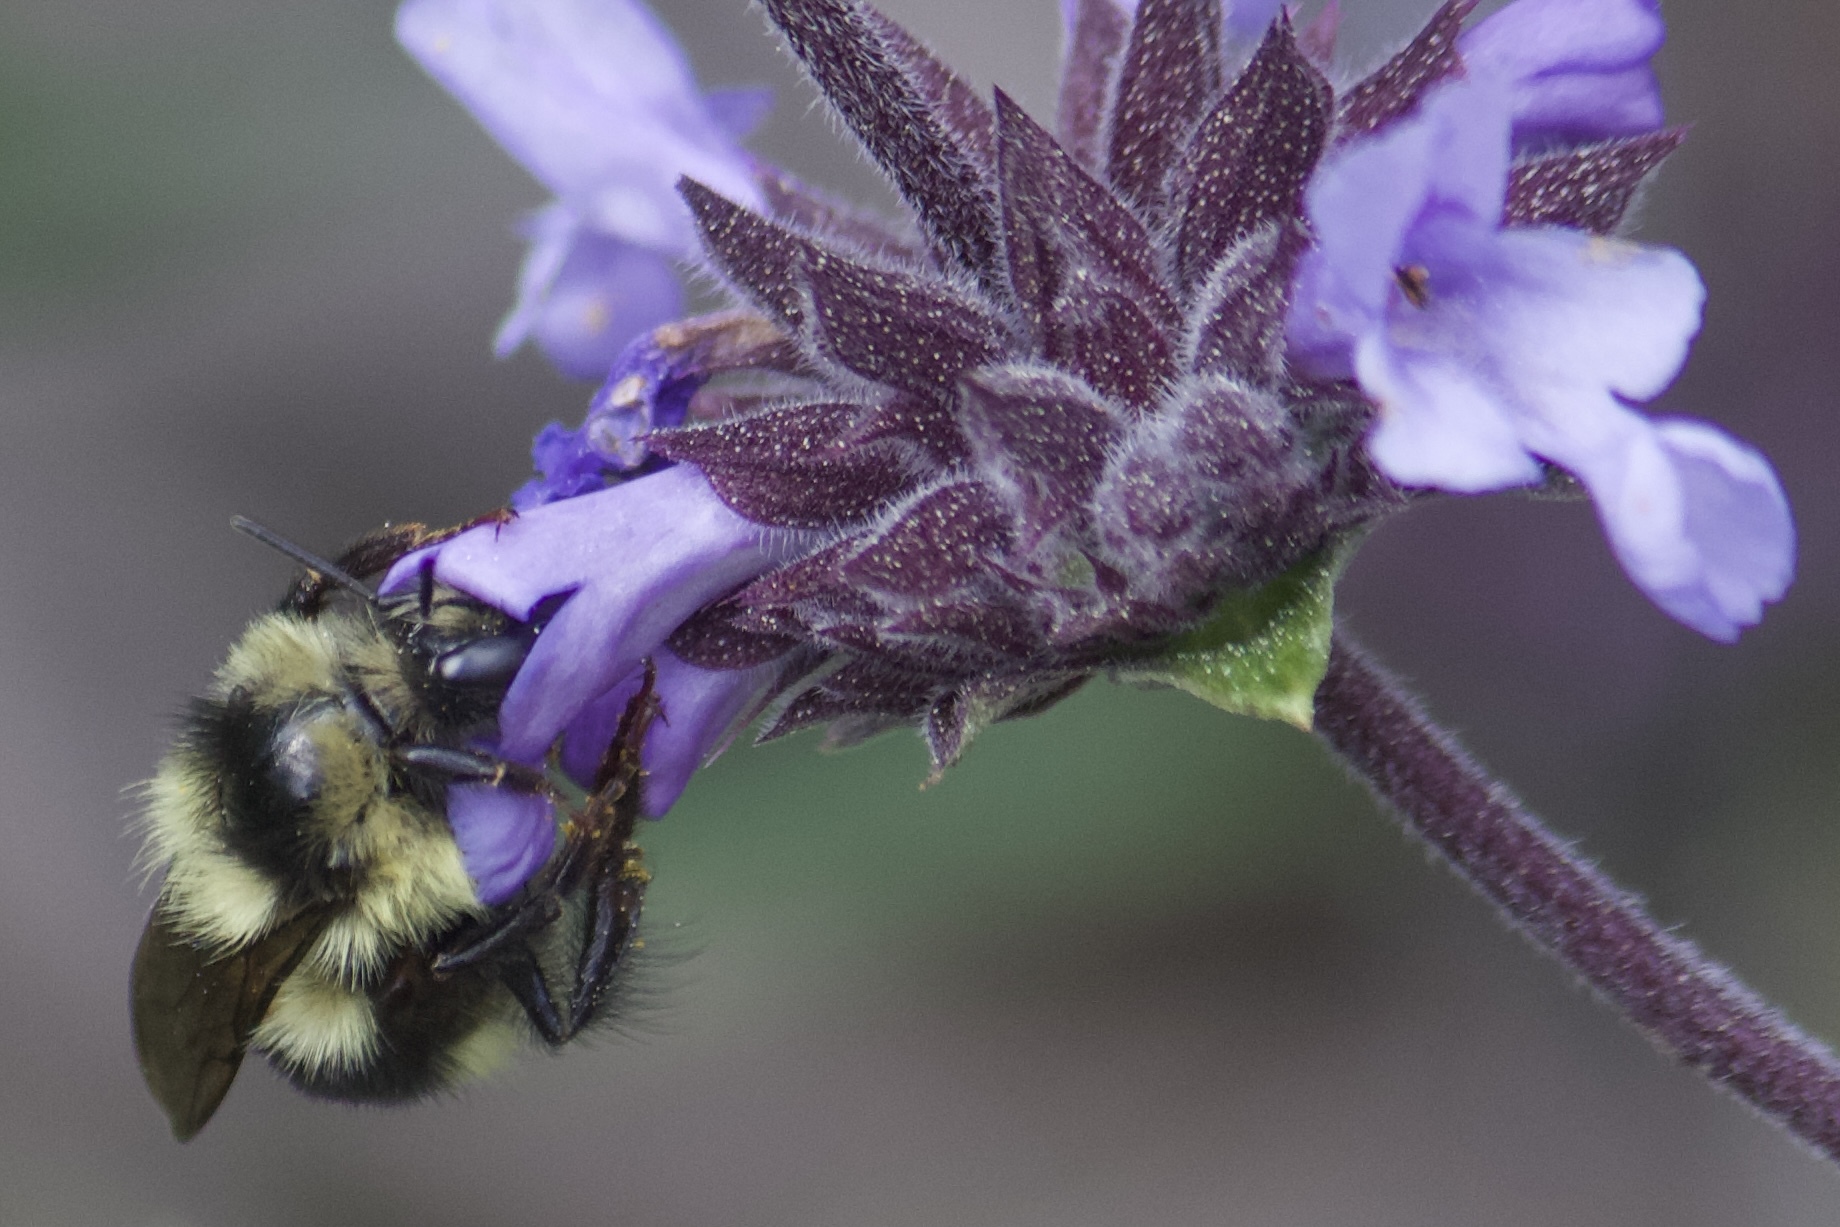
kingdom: Animalia
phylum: Arthropoda
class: Insecta
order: Hymenoptera
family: Apidae
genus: Bombus
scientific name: Bombus melanopygus
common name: Black tail bumble bee
